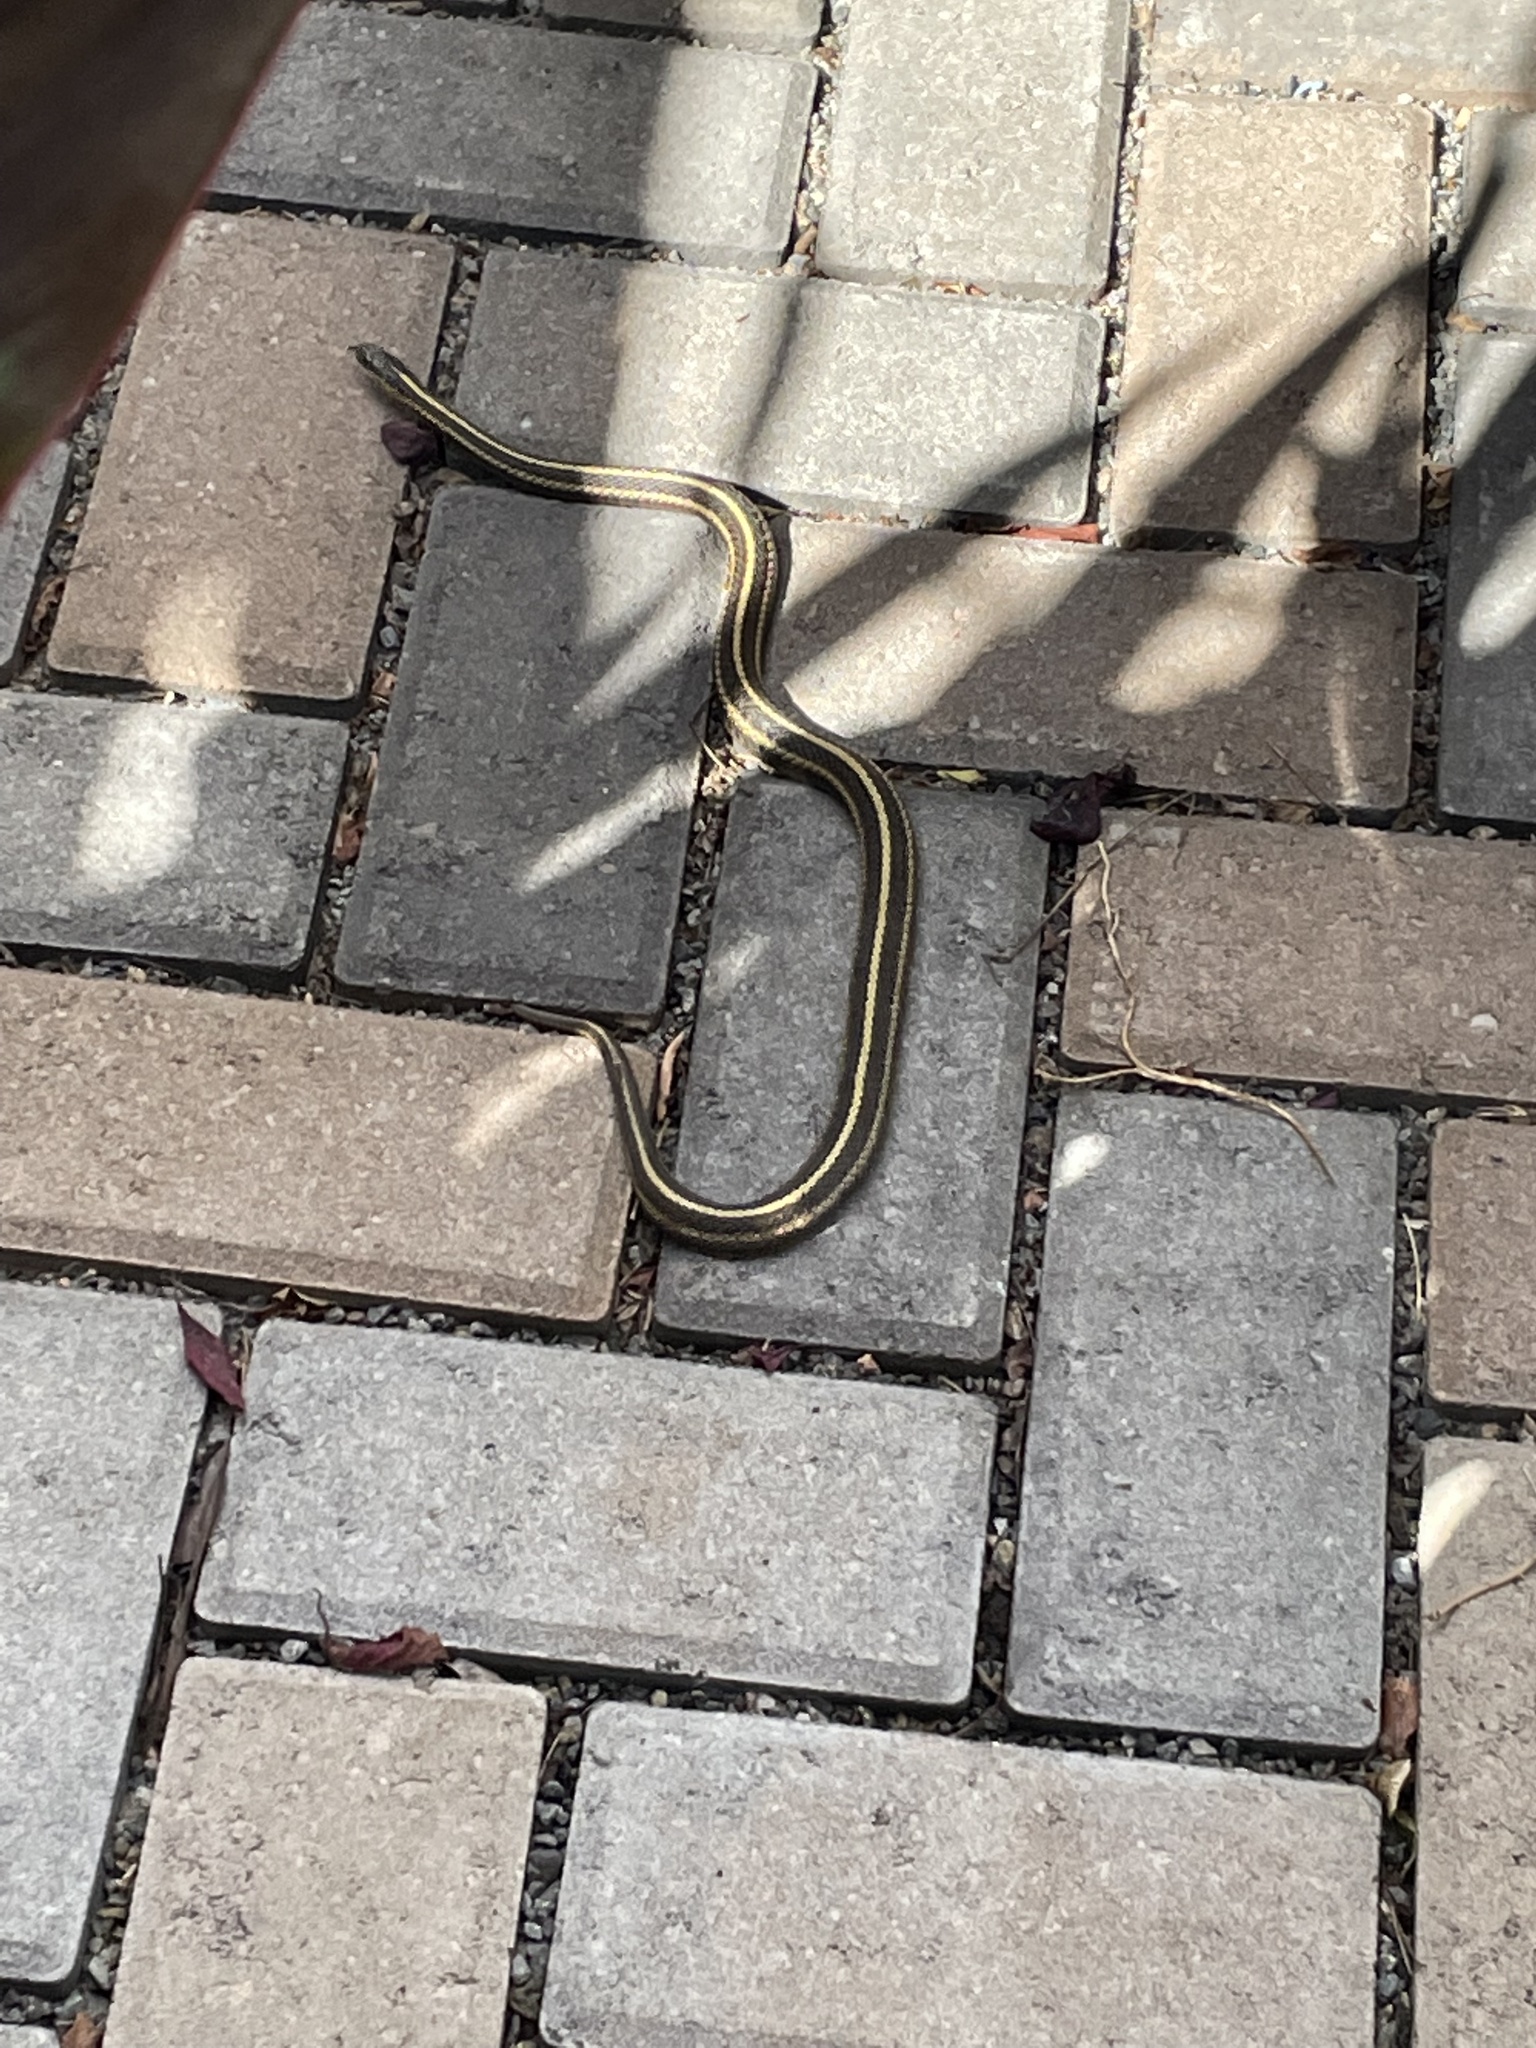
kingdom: Animalia
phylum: Chordata
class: Squamata
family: Colubridae
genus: Thamnophis
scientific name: Thamnophis ordinoides
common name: Northwestern garter snake
